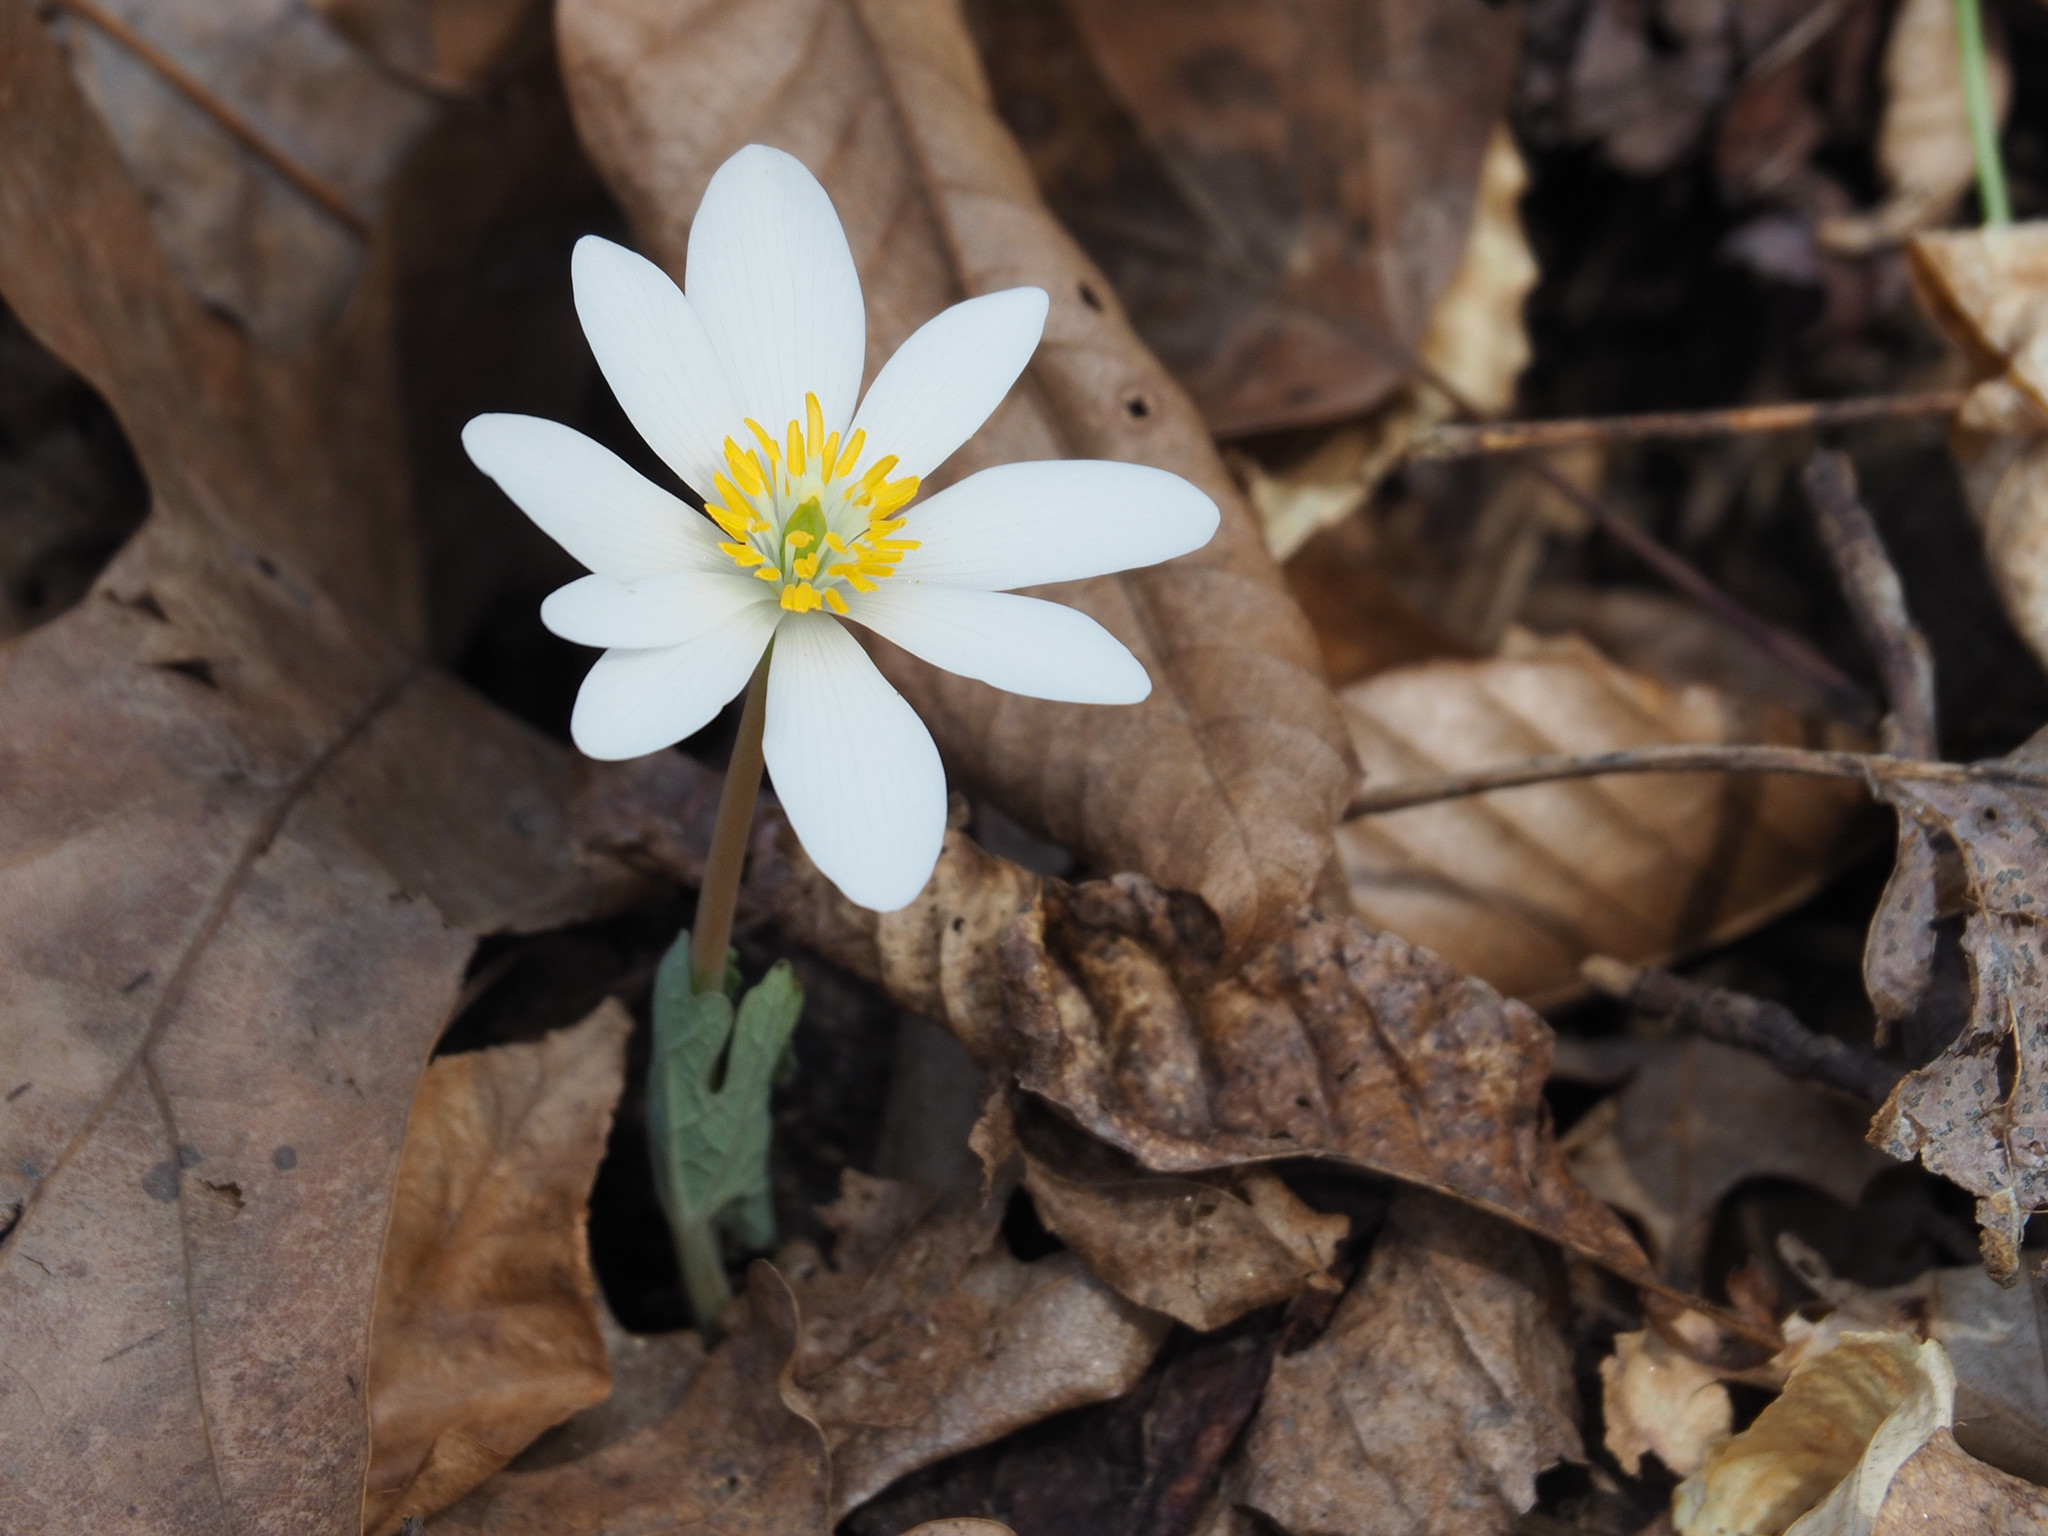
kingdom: Plantae
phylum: Tracheophyta
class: Magnoliopsida
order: Ranunculales
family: Papaveraceae
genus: Sanguinaria
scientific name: Sanguinaria canadensis
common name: Bloodroot
